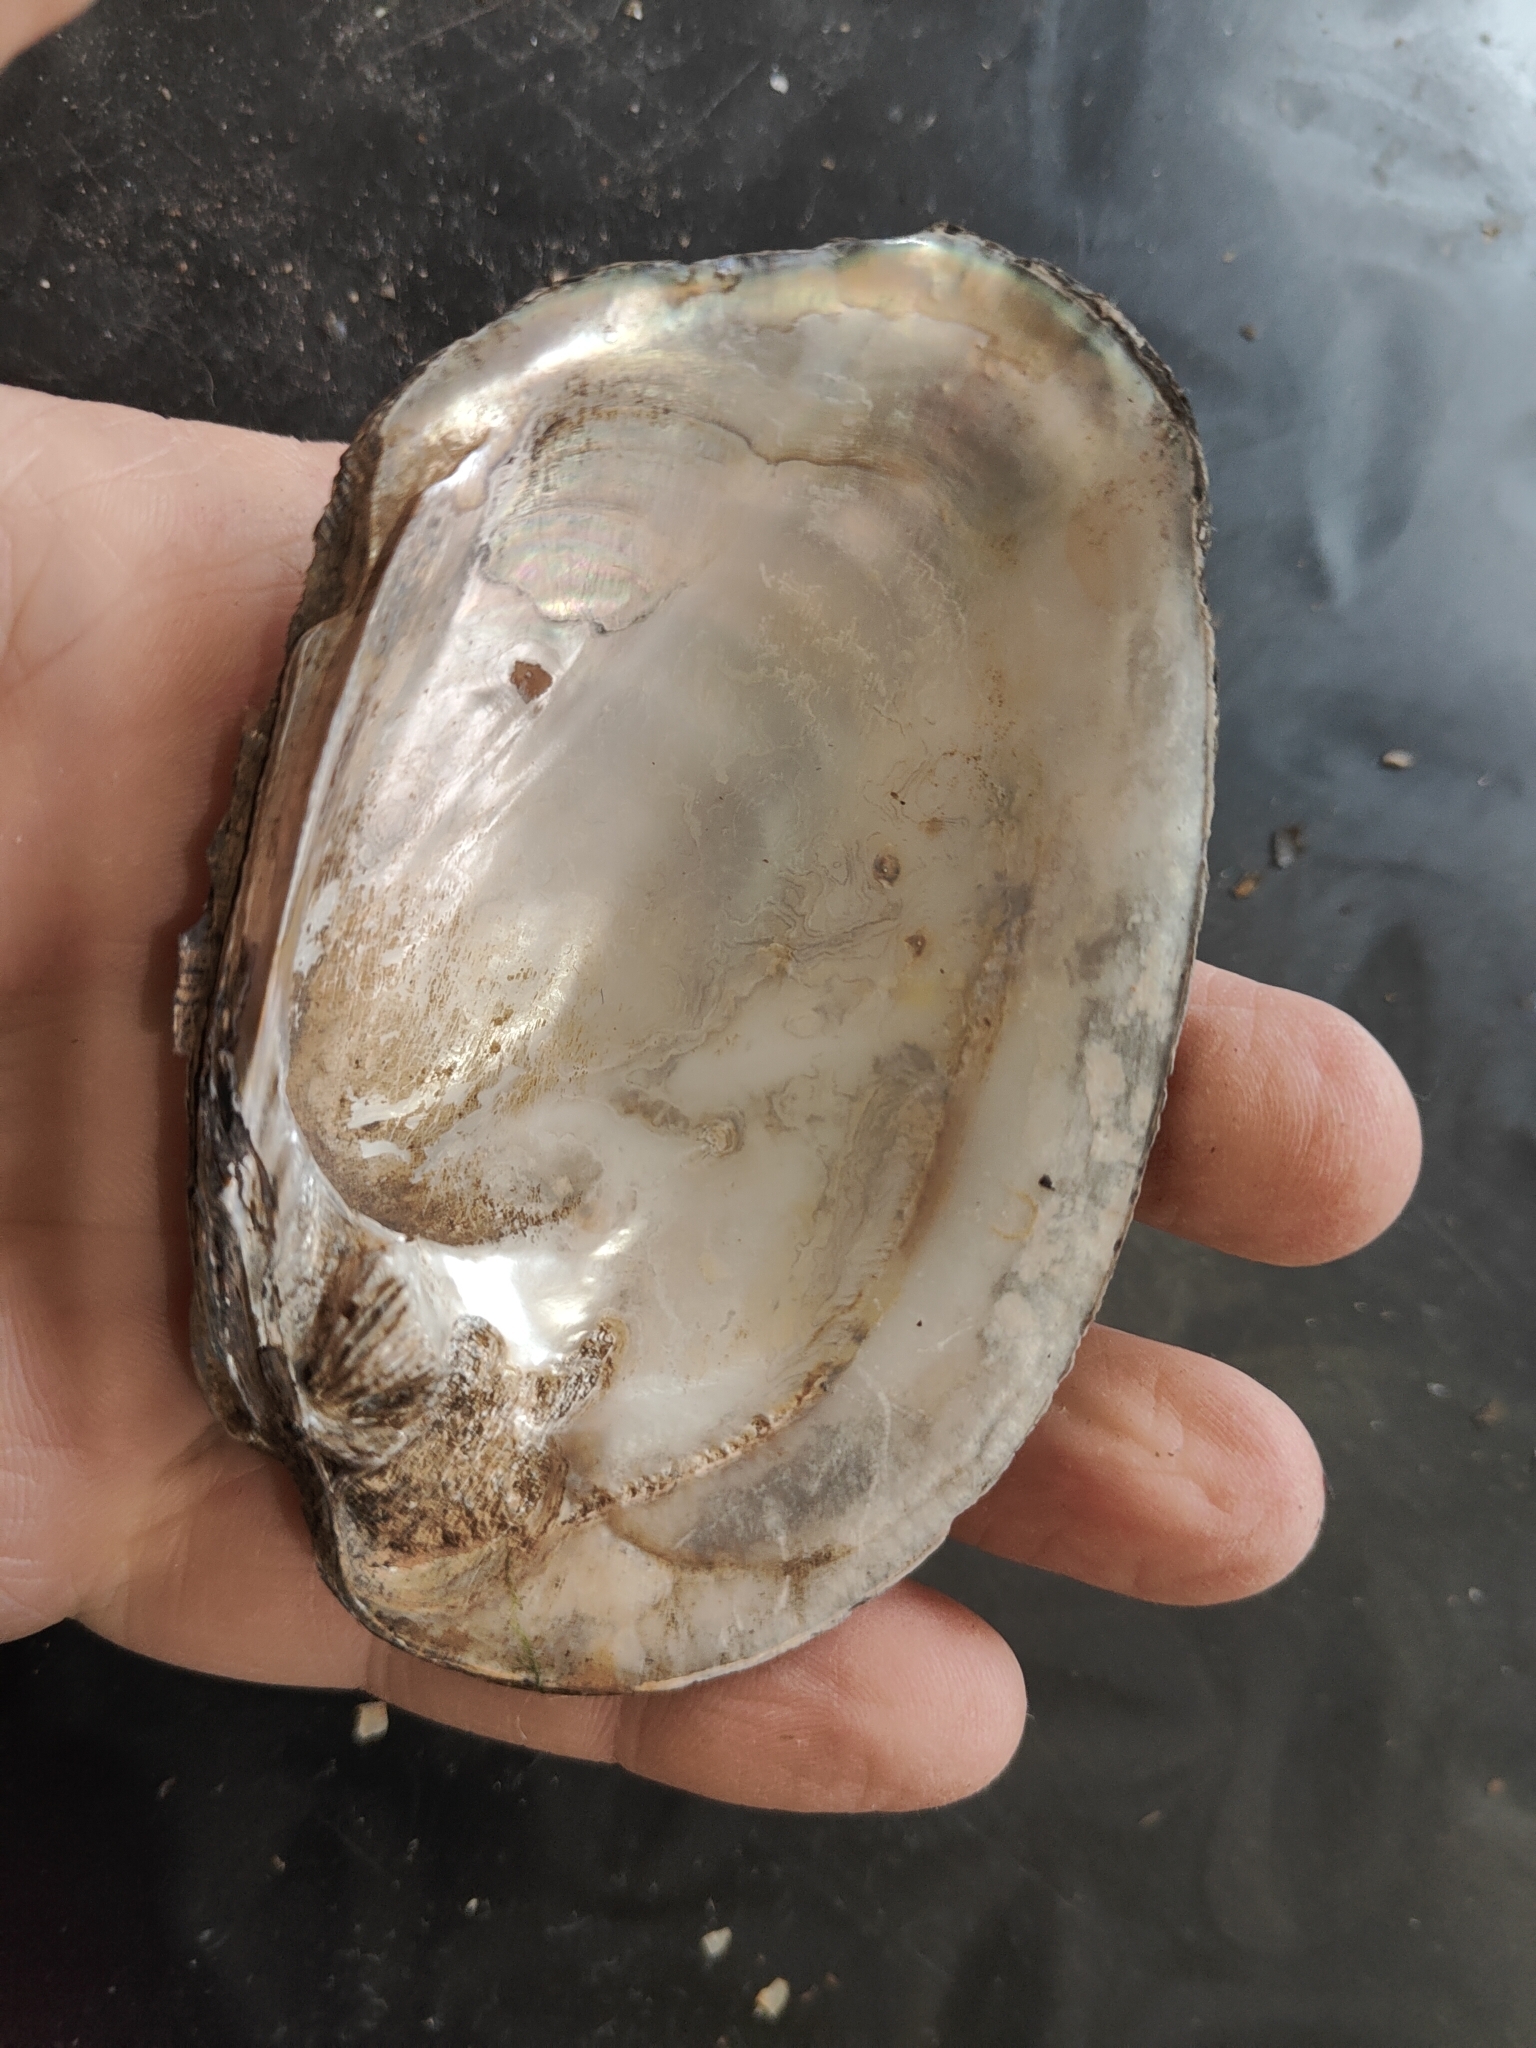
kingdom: Animalia
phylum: Mollusca
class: Bivalvia
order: Unionida
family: Unionidae
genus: Amblema
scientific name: Amblema plicata
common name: Threeridge
